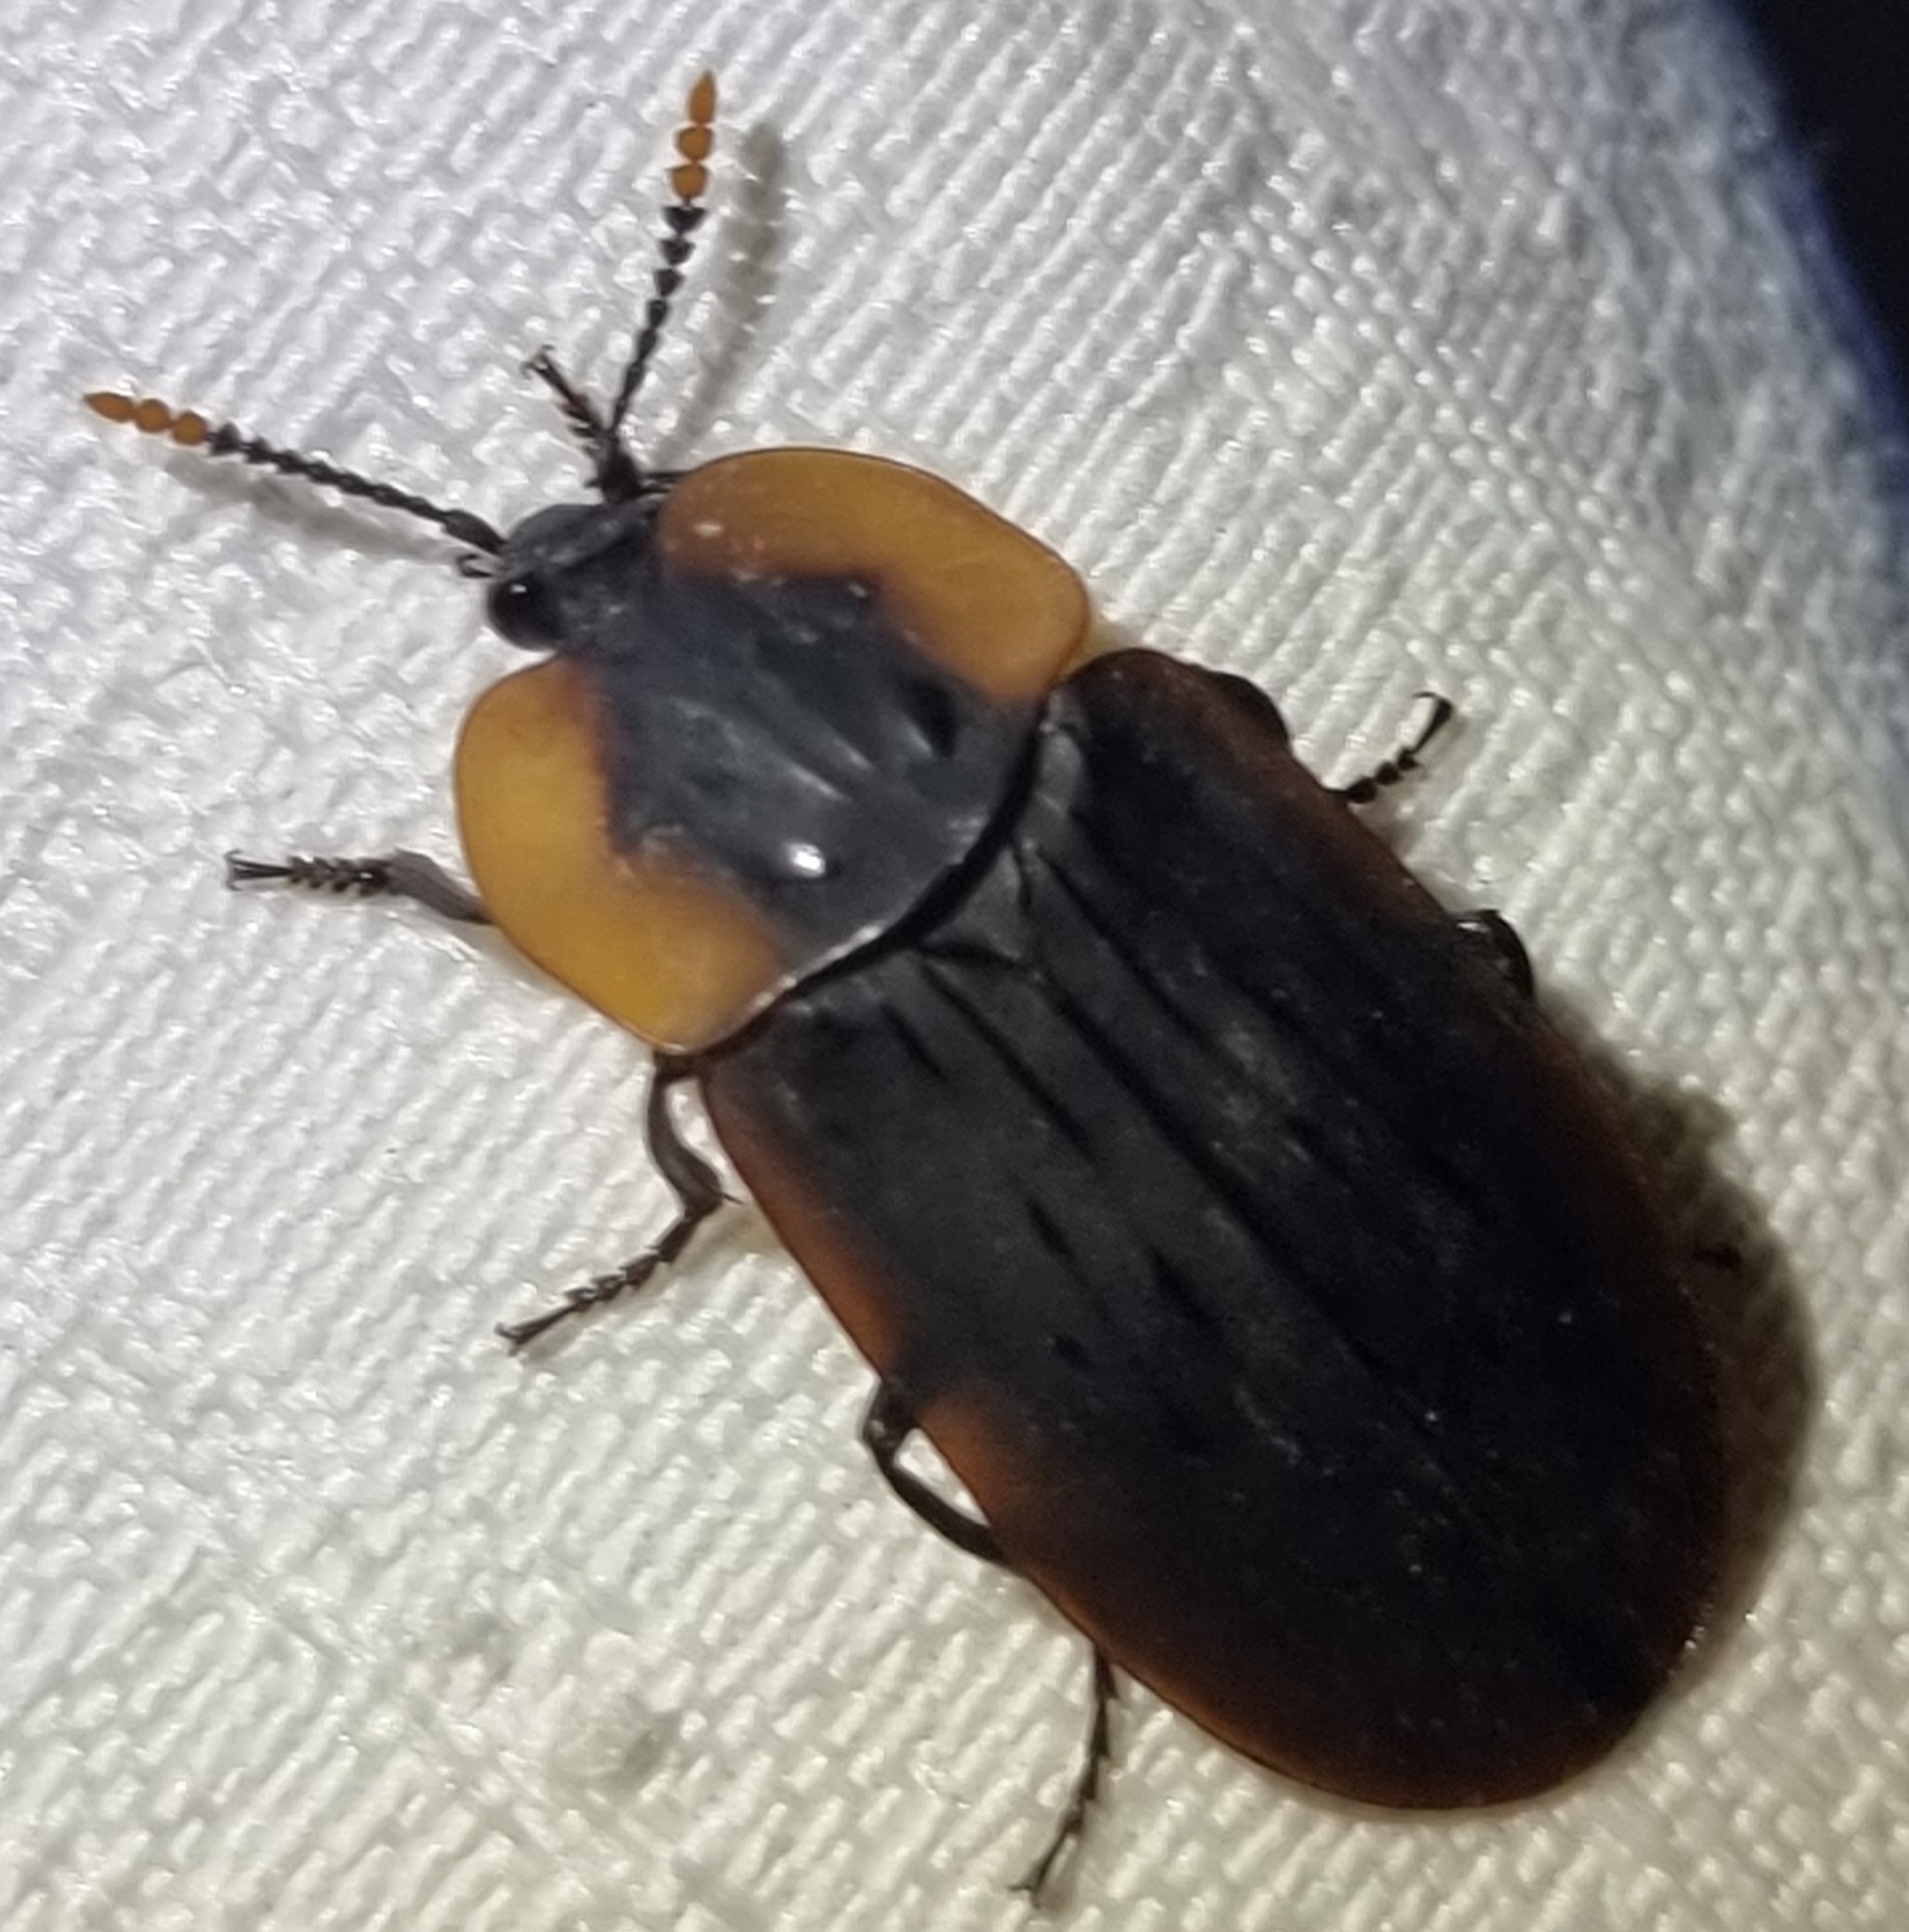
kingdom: Animalia
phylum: Arthropoda
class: Insecta
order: Coleoptera
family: Staphylinidae
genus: Ptomaphila
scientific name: Ptomaphila perlata
